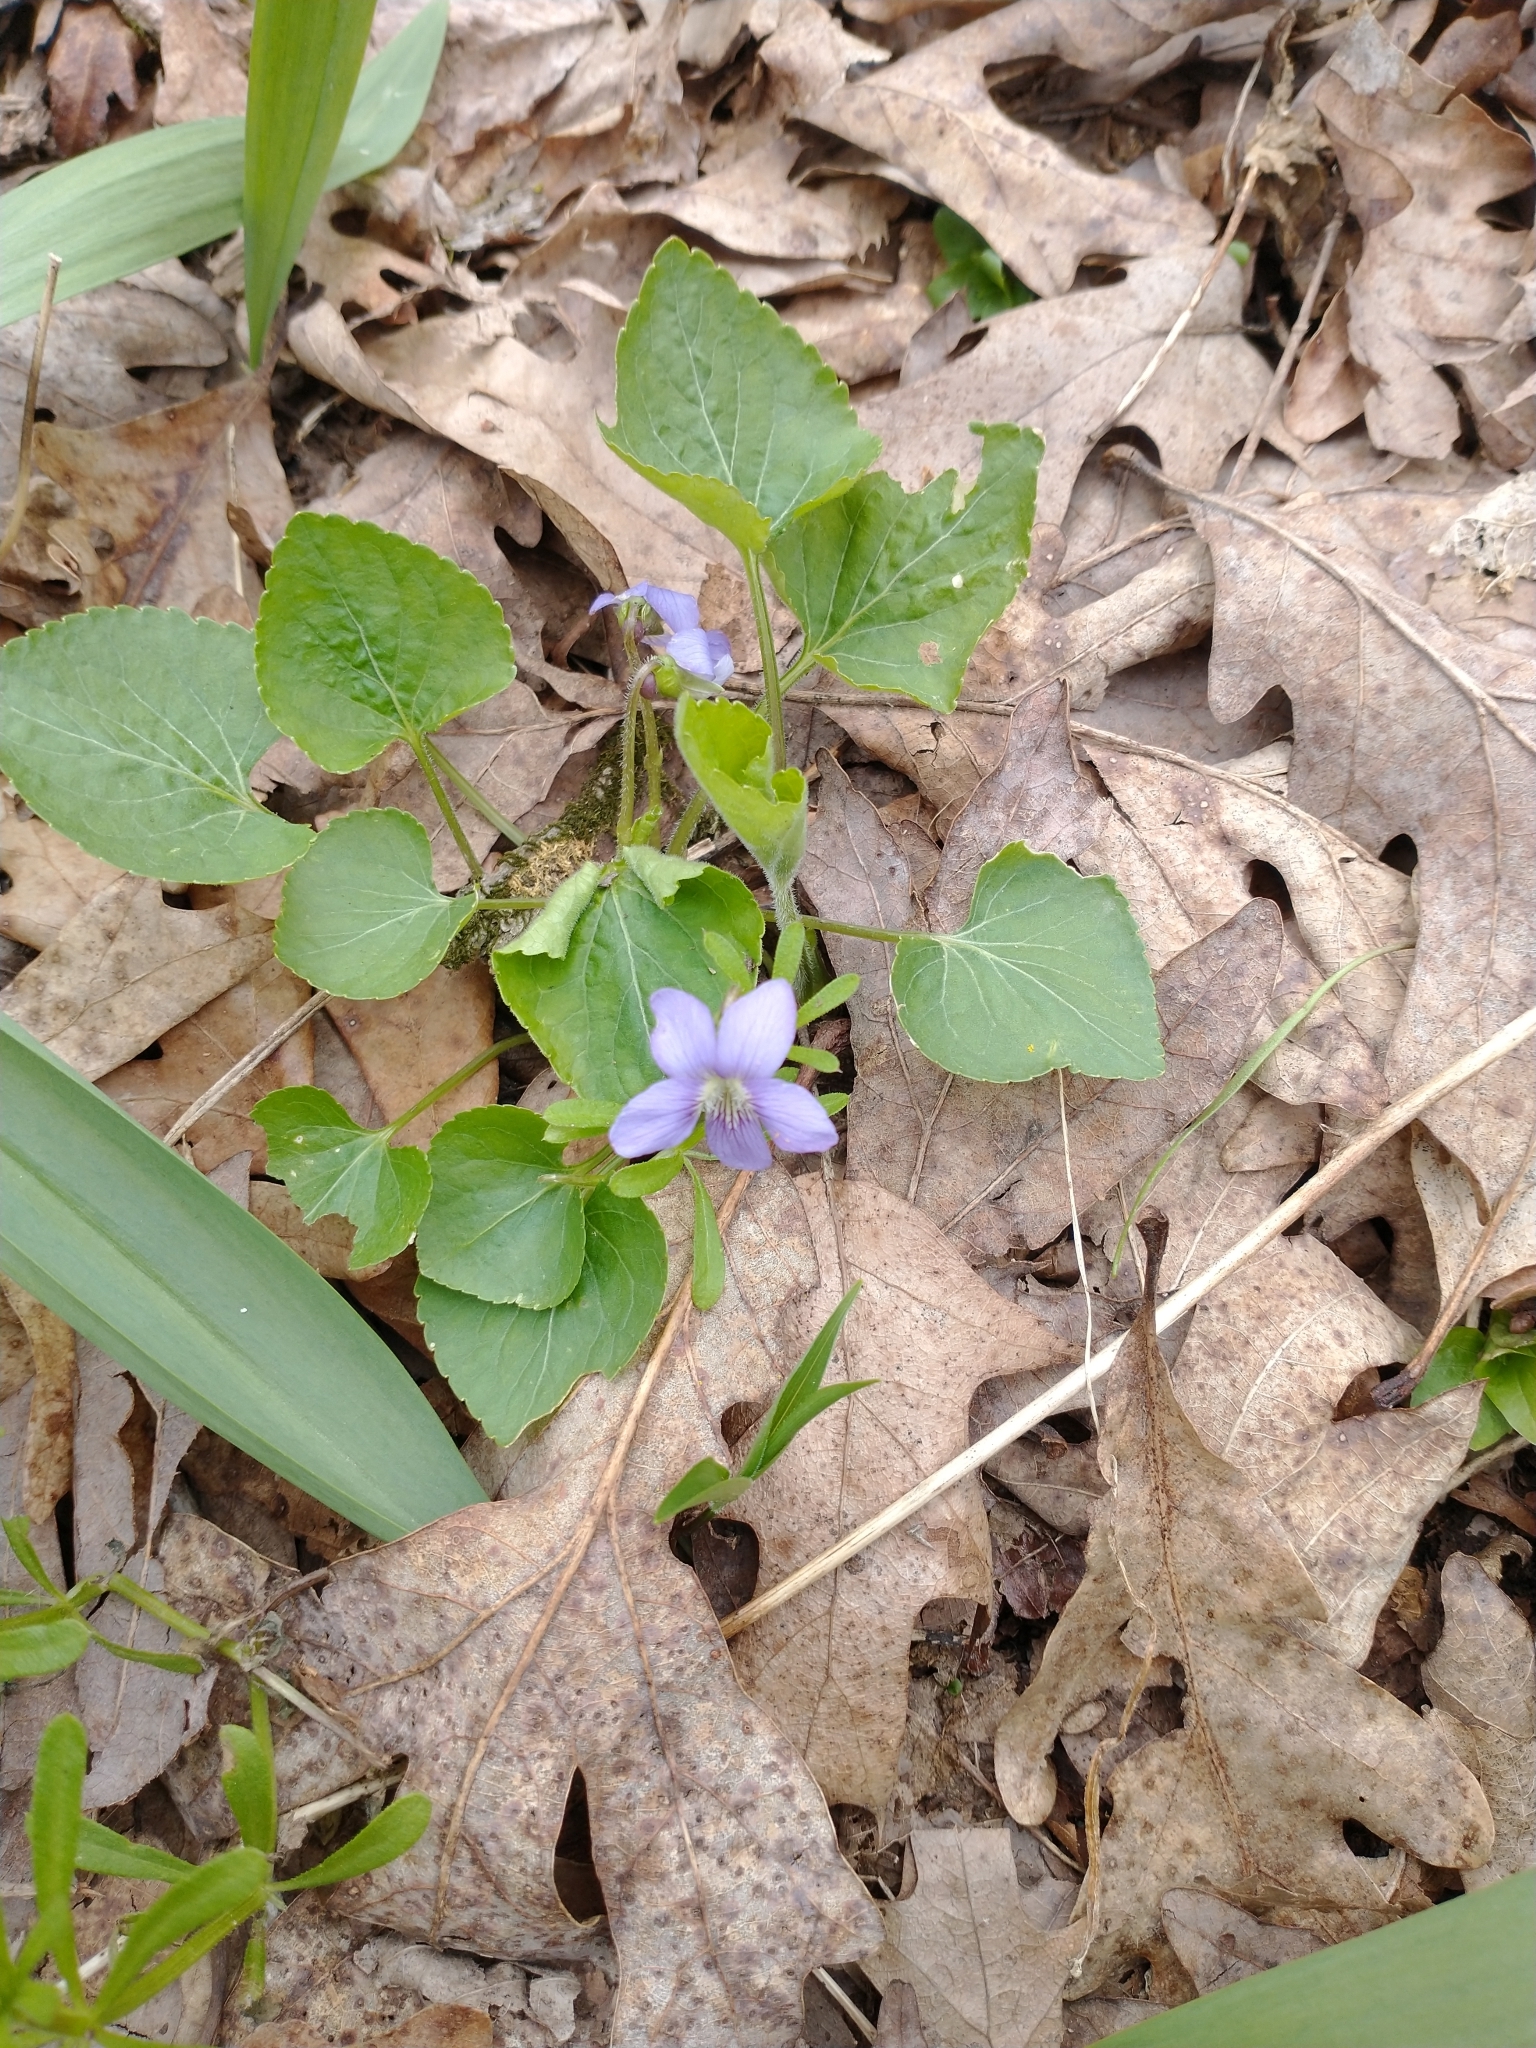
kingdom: Plantae
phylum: Tracheophyta
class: Magnoliopsida
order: Malpighiales
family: Violaceae
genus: Viola
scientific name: Viola sororia
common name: Dooryard violet
